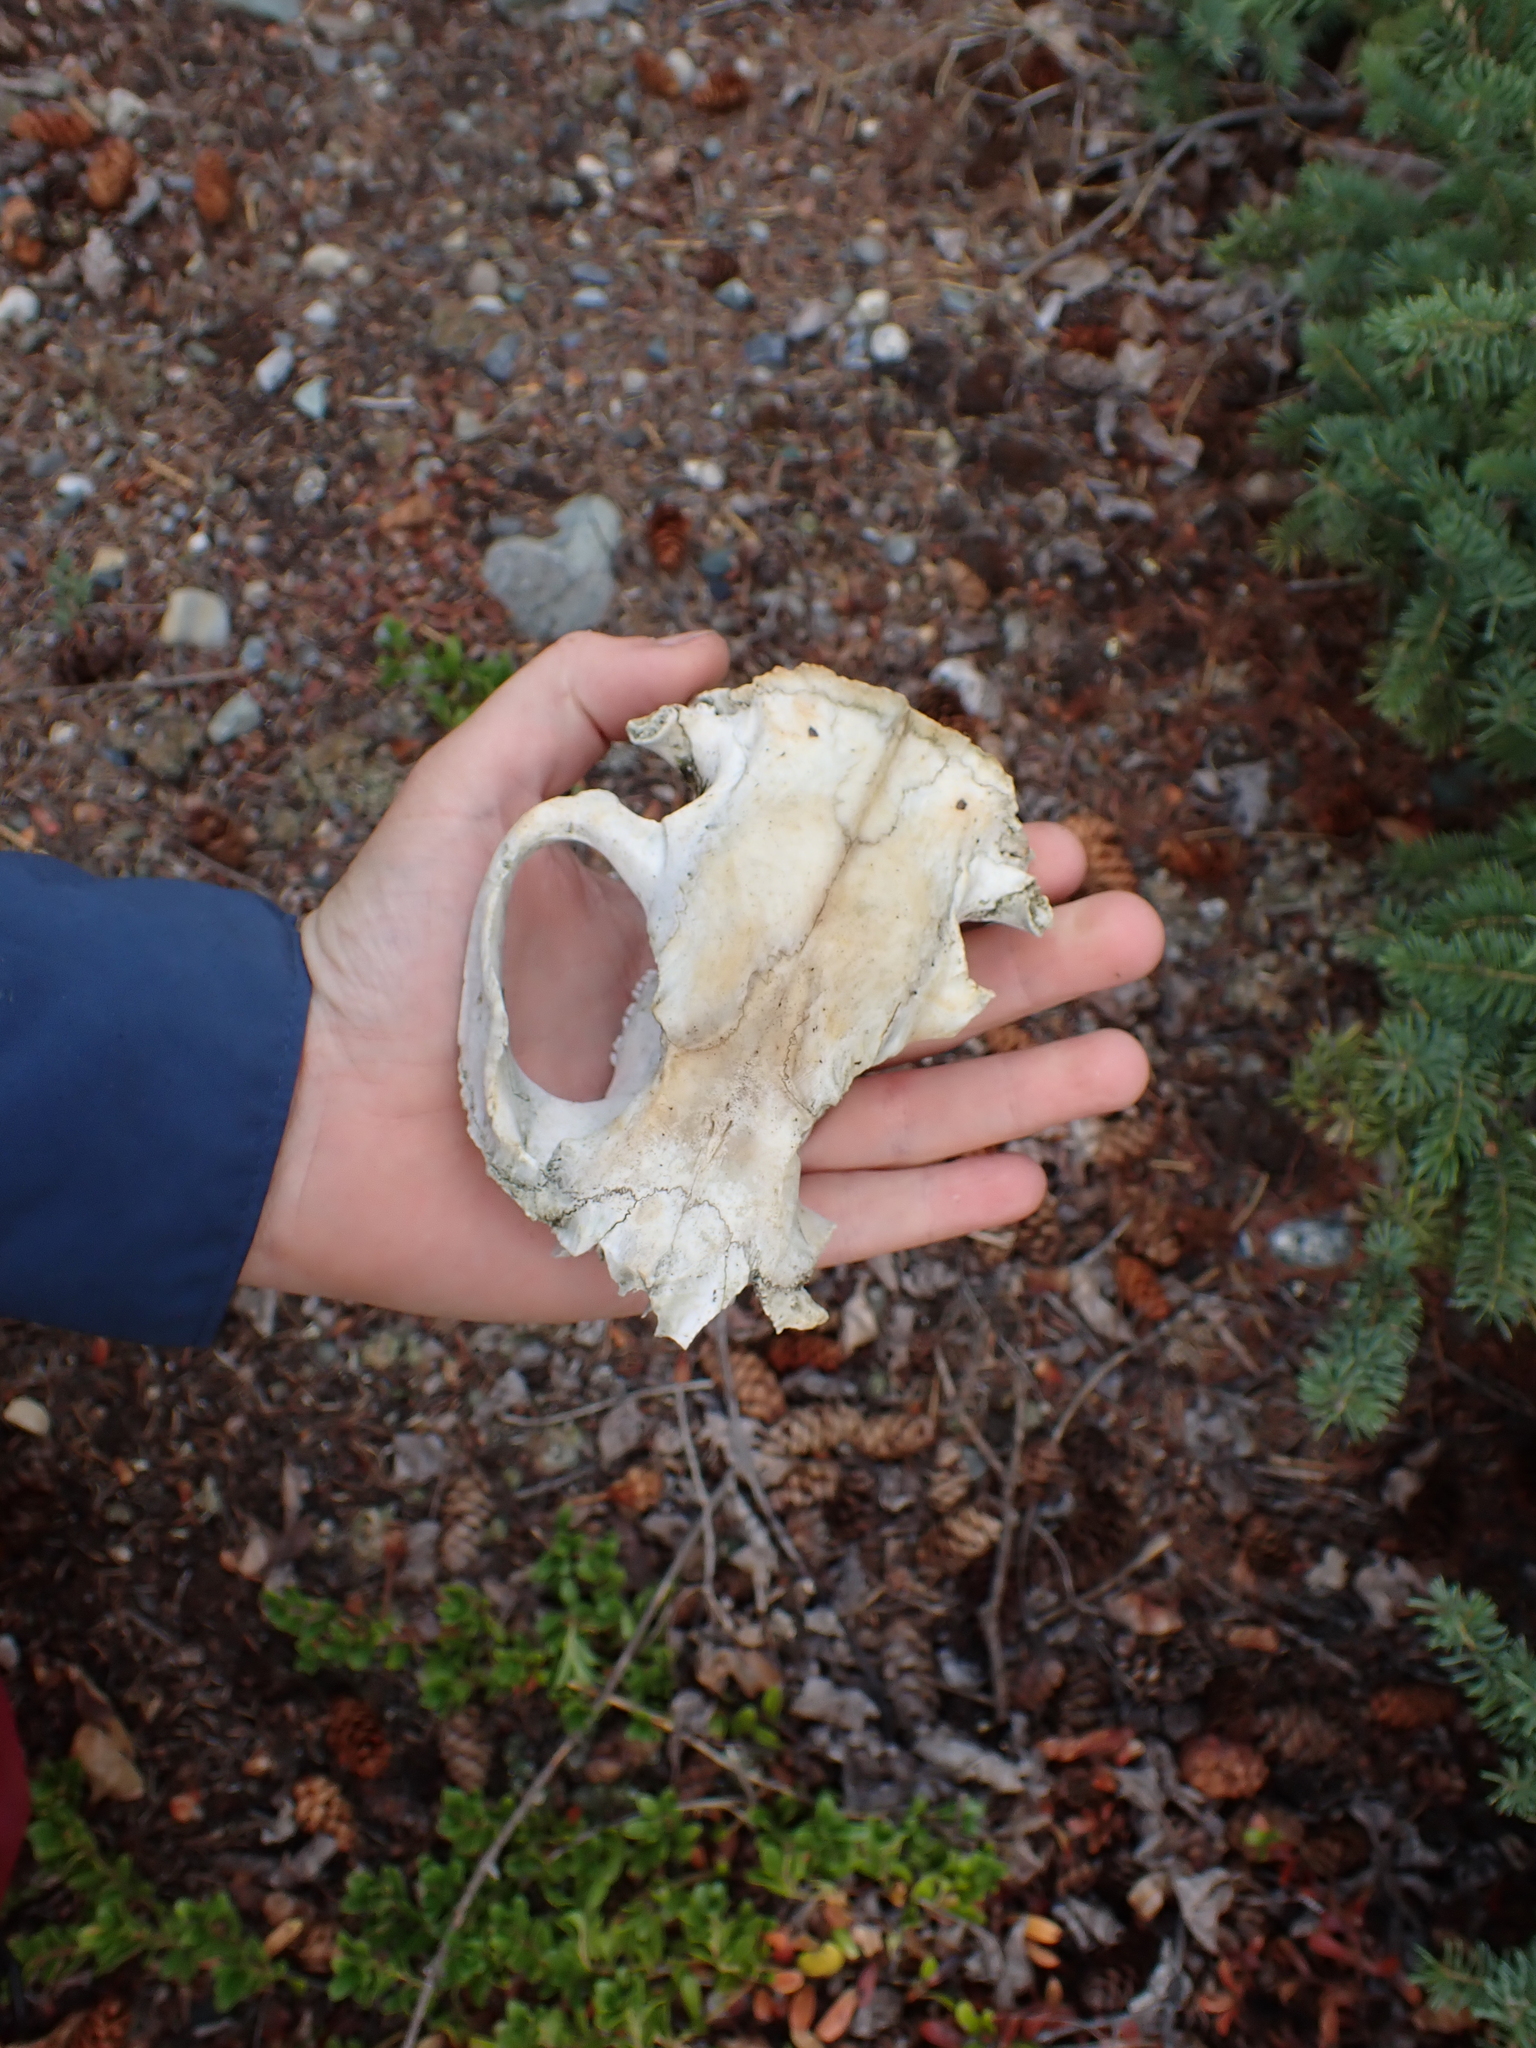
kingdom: Animalia
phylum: Chordata
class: Mammalia
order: Rodentia
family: Castoridae
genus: Castor
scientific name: Castor canadensis
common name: American beaver
